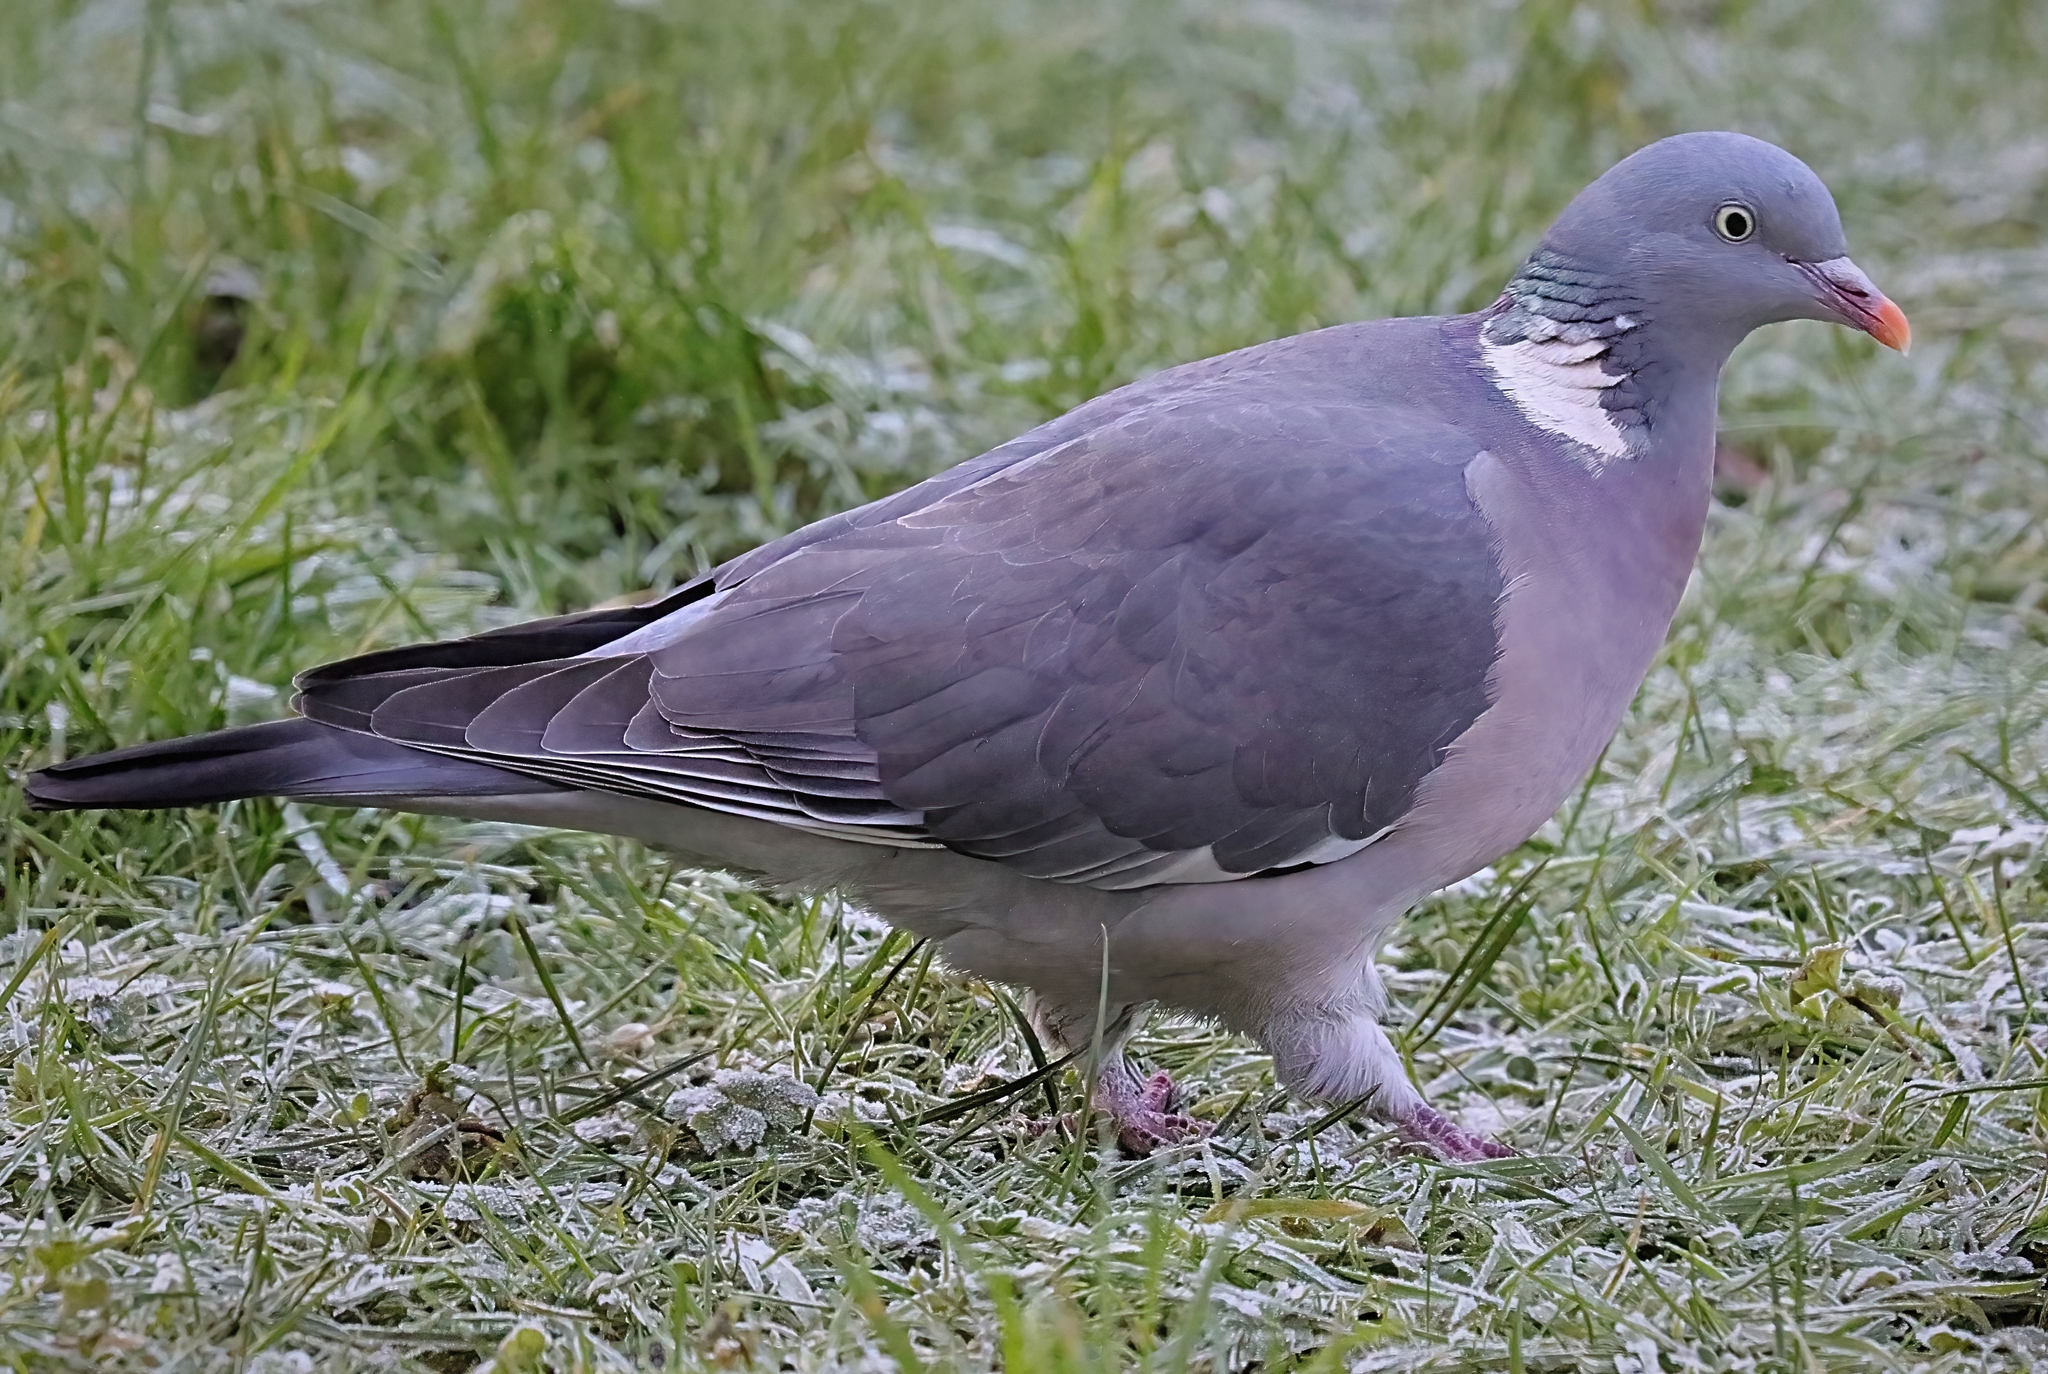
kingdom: Animalia
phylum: Chordata
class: Aves
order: Columbiformes
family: Columbidae
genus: Columba
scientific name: Columba palumbus
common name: Common wood pigeon
